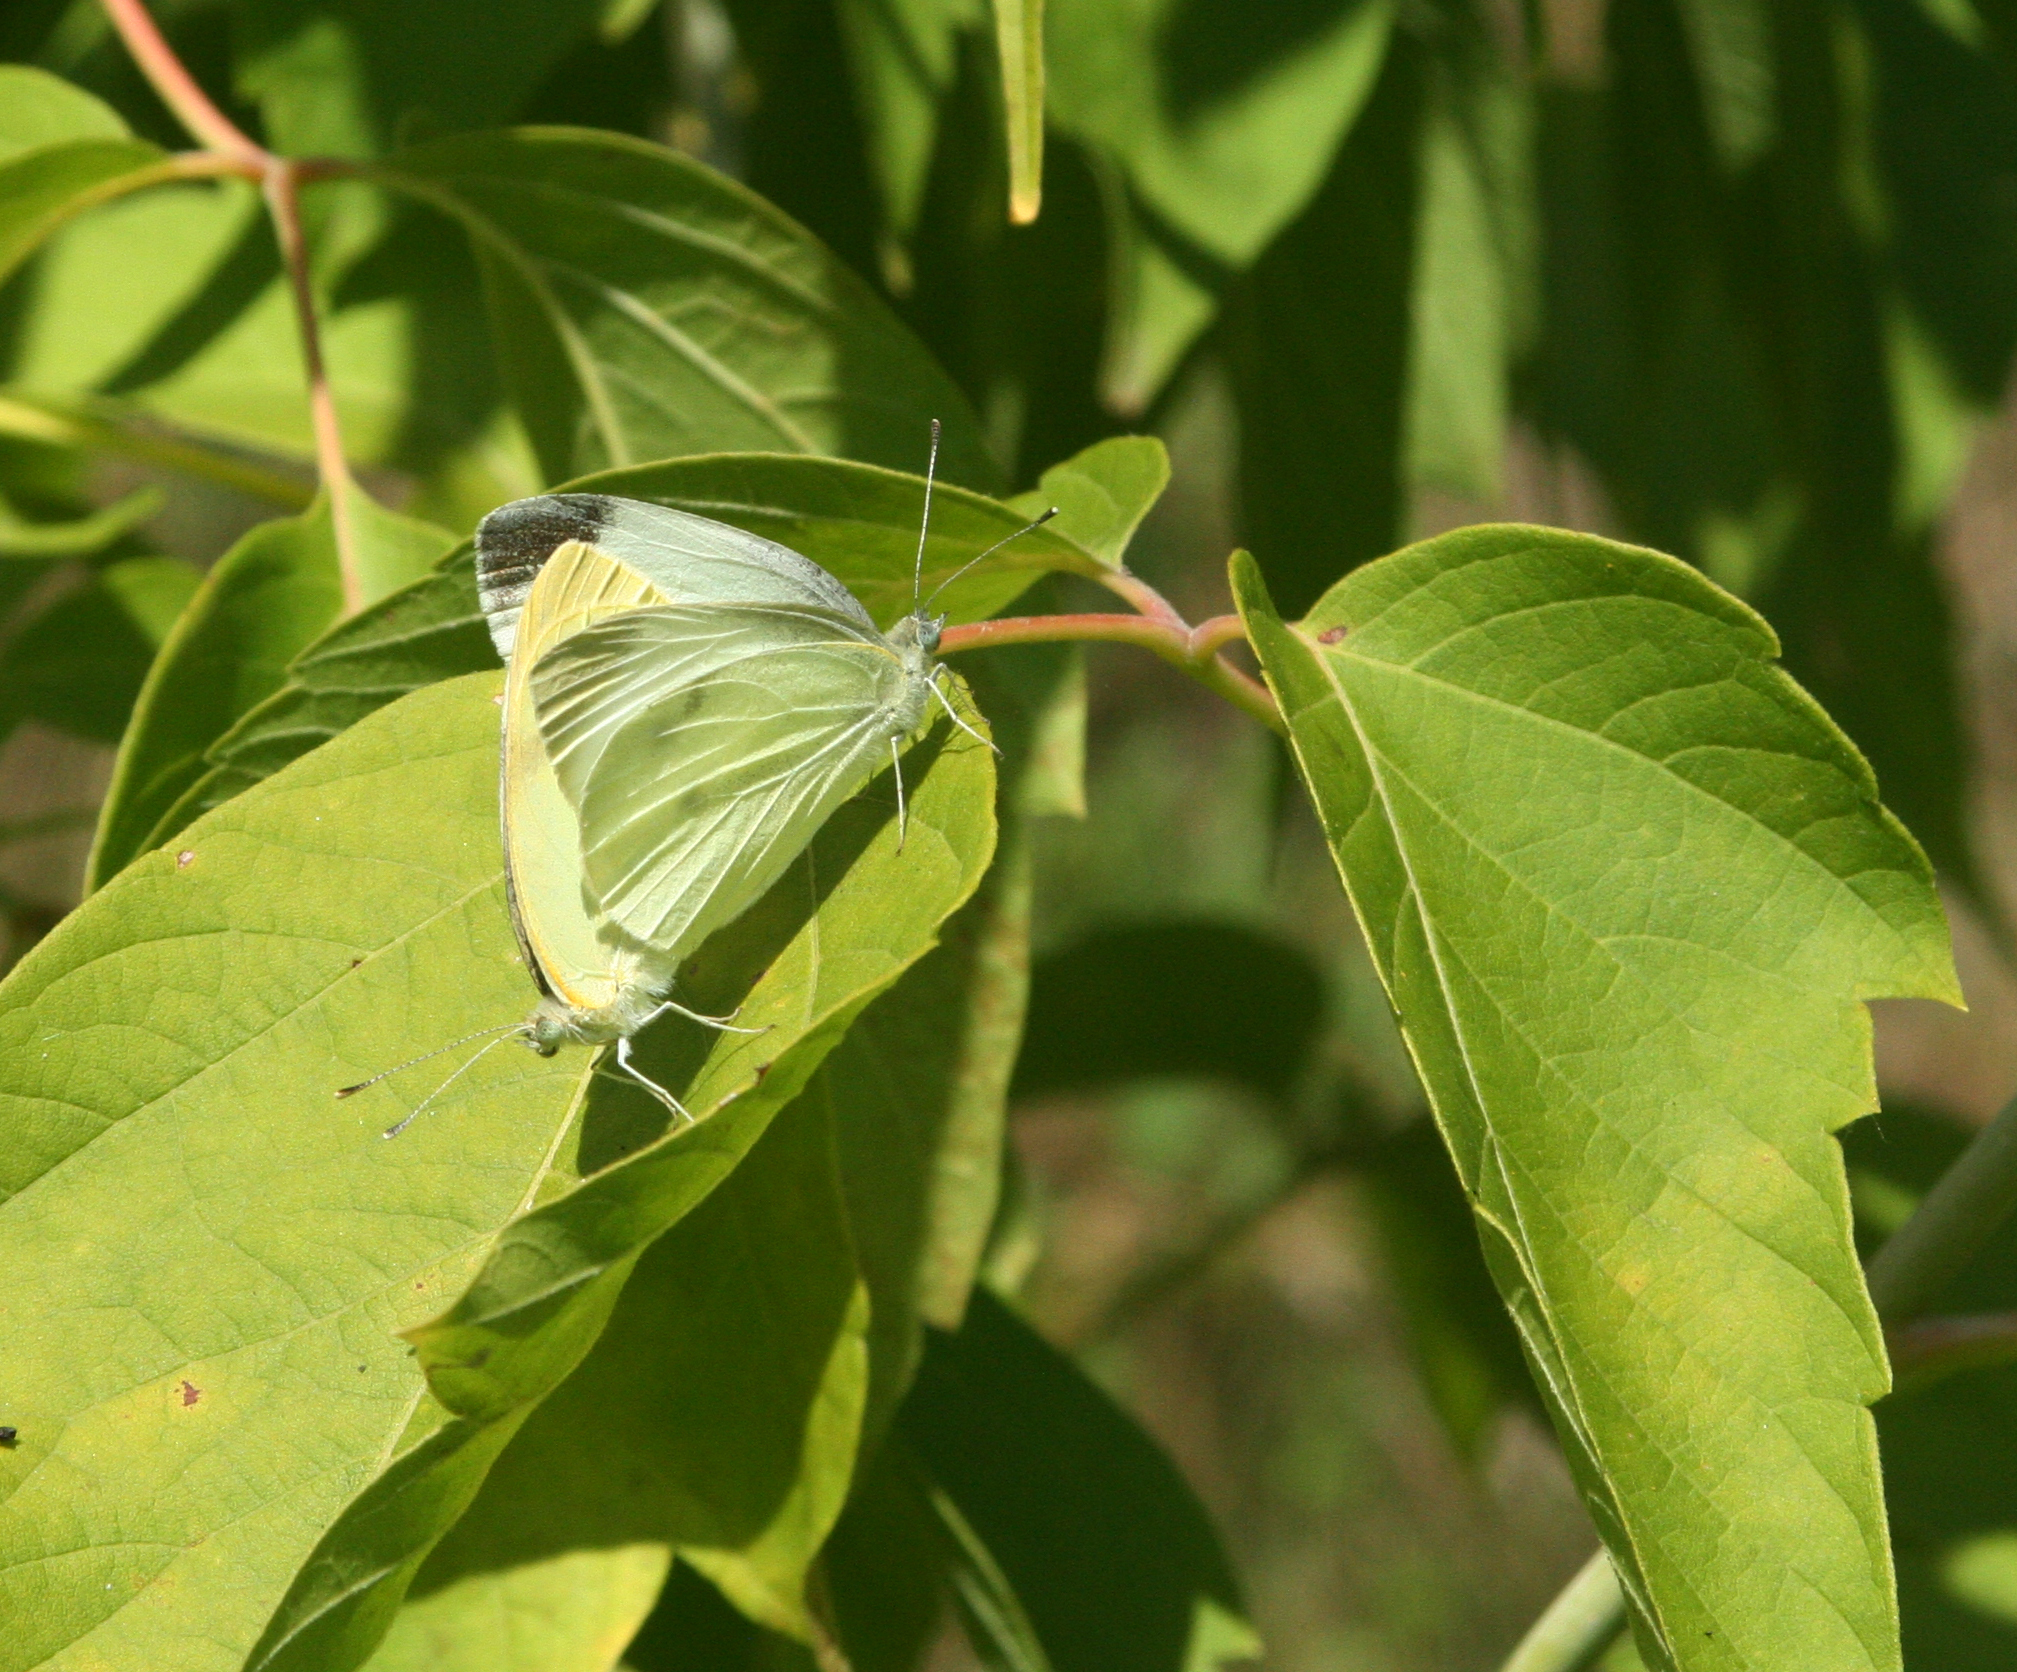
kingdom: Animalia
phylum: Arthropoda
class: Insecta
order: Lepidoptera
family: Pieridae
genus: Pieris
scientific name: Pieris rapae
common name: Small white
